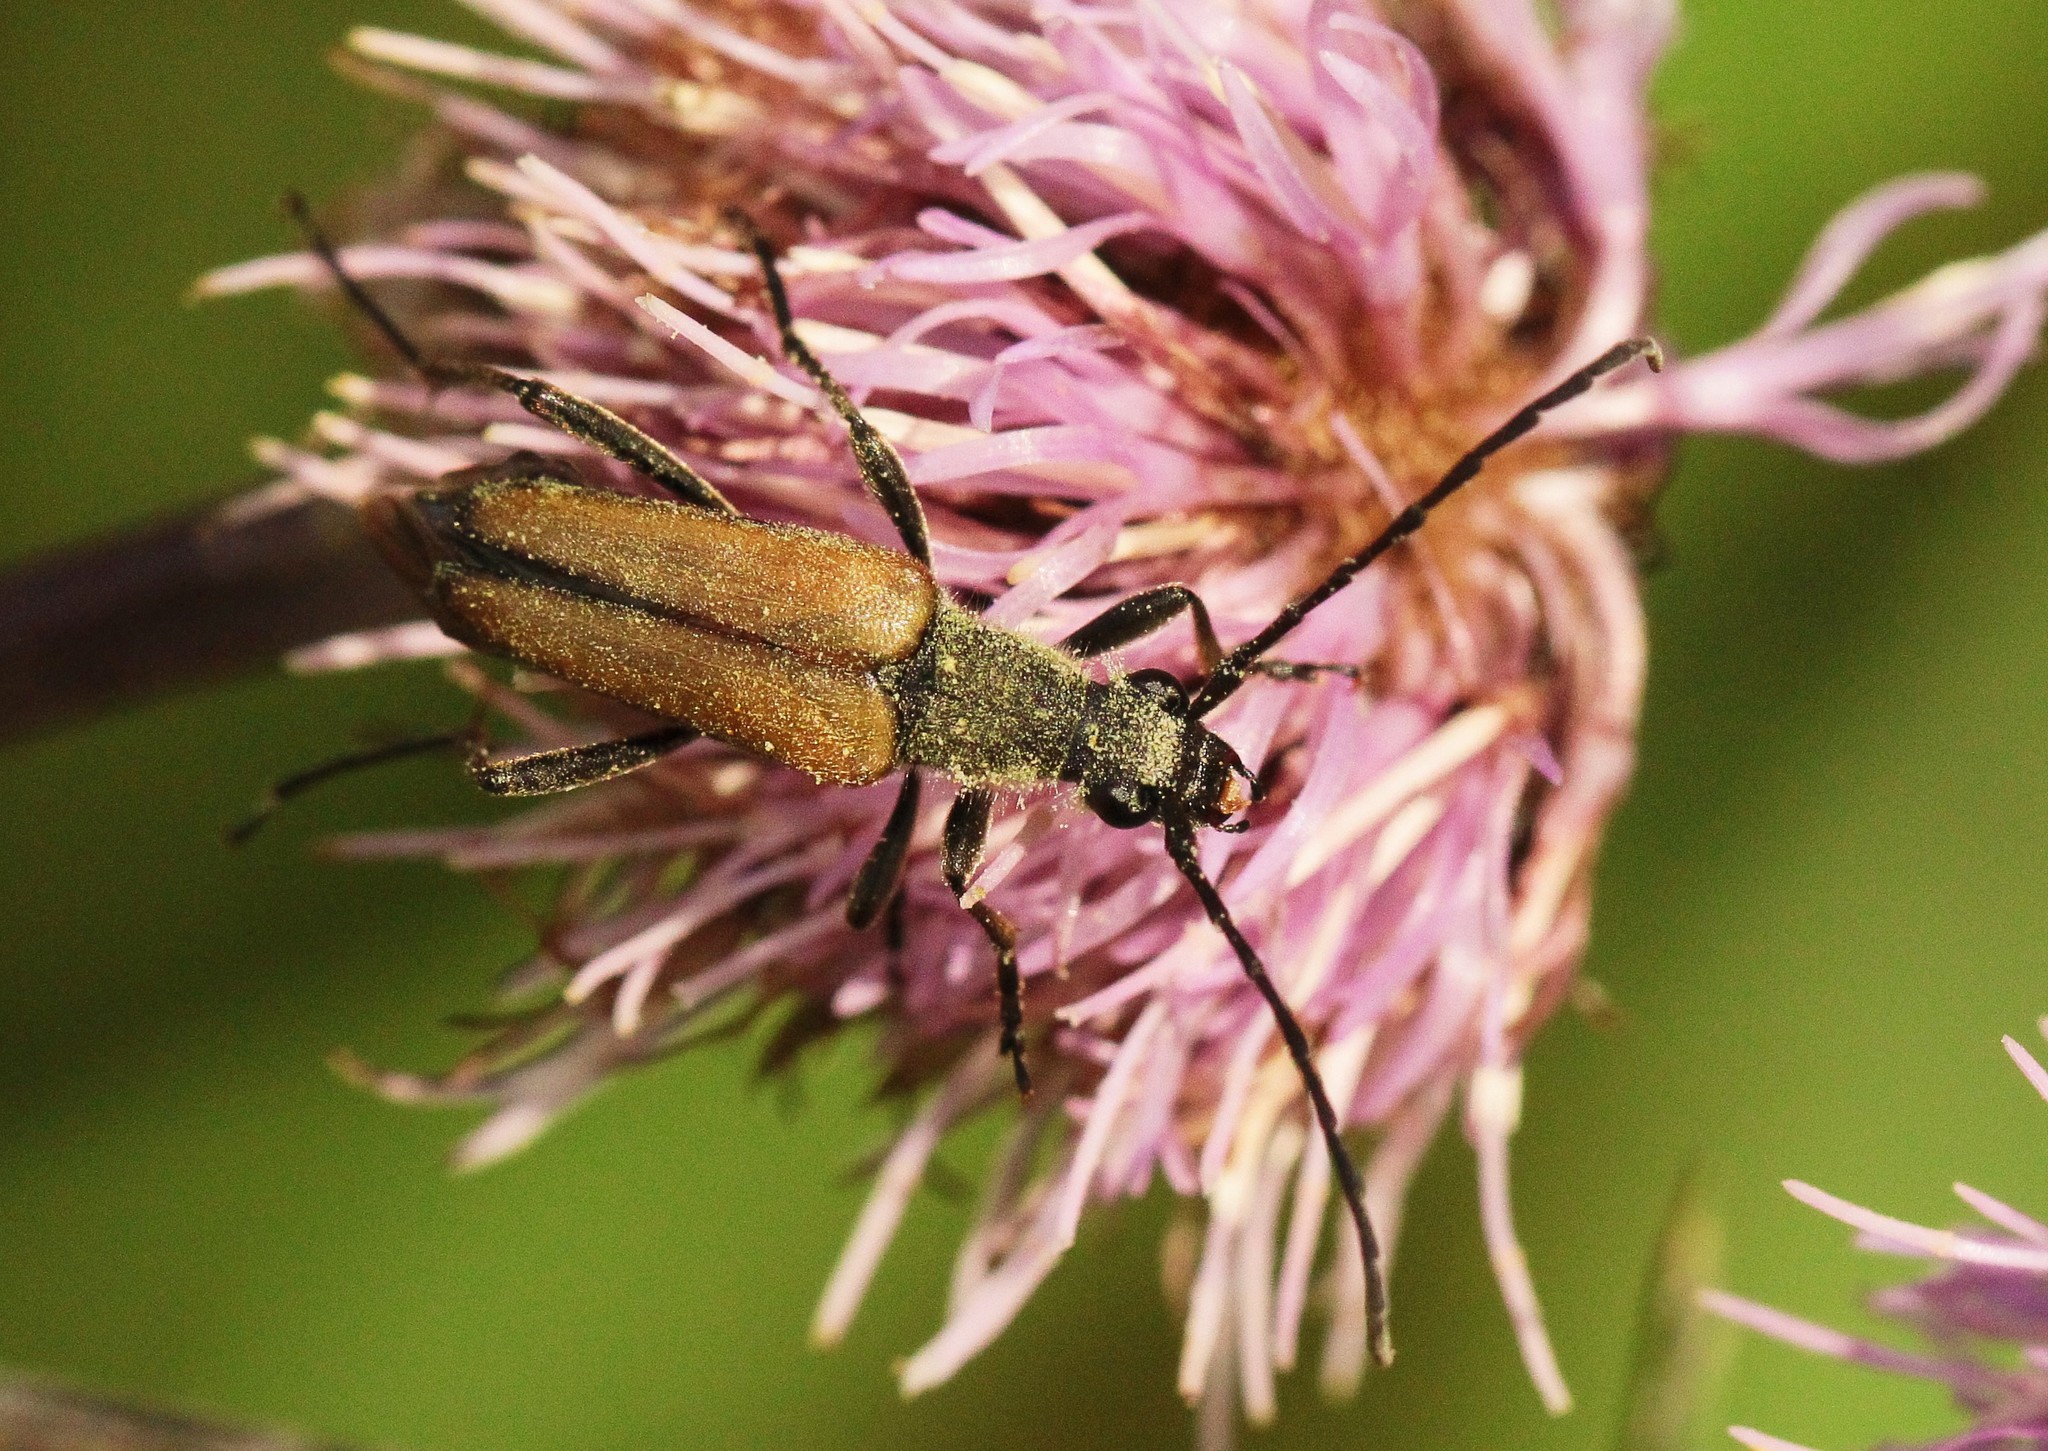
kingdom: Animalia
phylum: Arthropoda
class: Insecta
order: Coleoptera
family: Cerambycidae
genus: Anastrangalia
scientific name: Anastrangalia reyi
